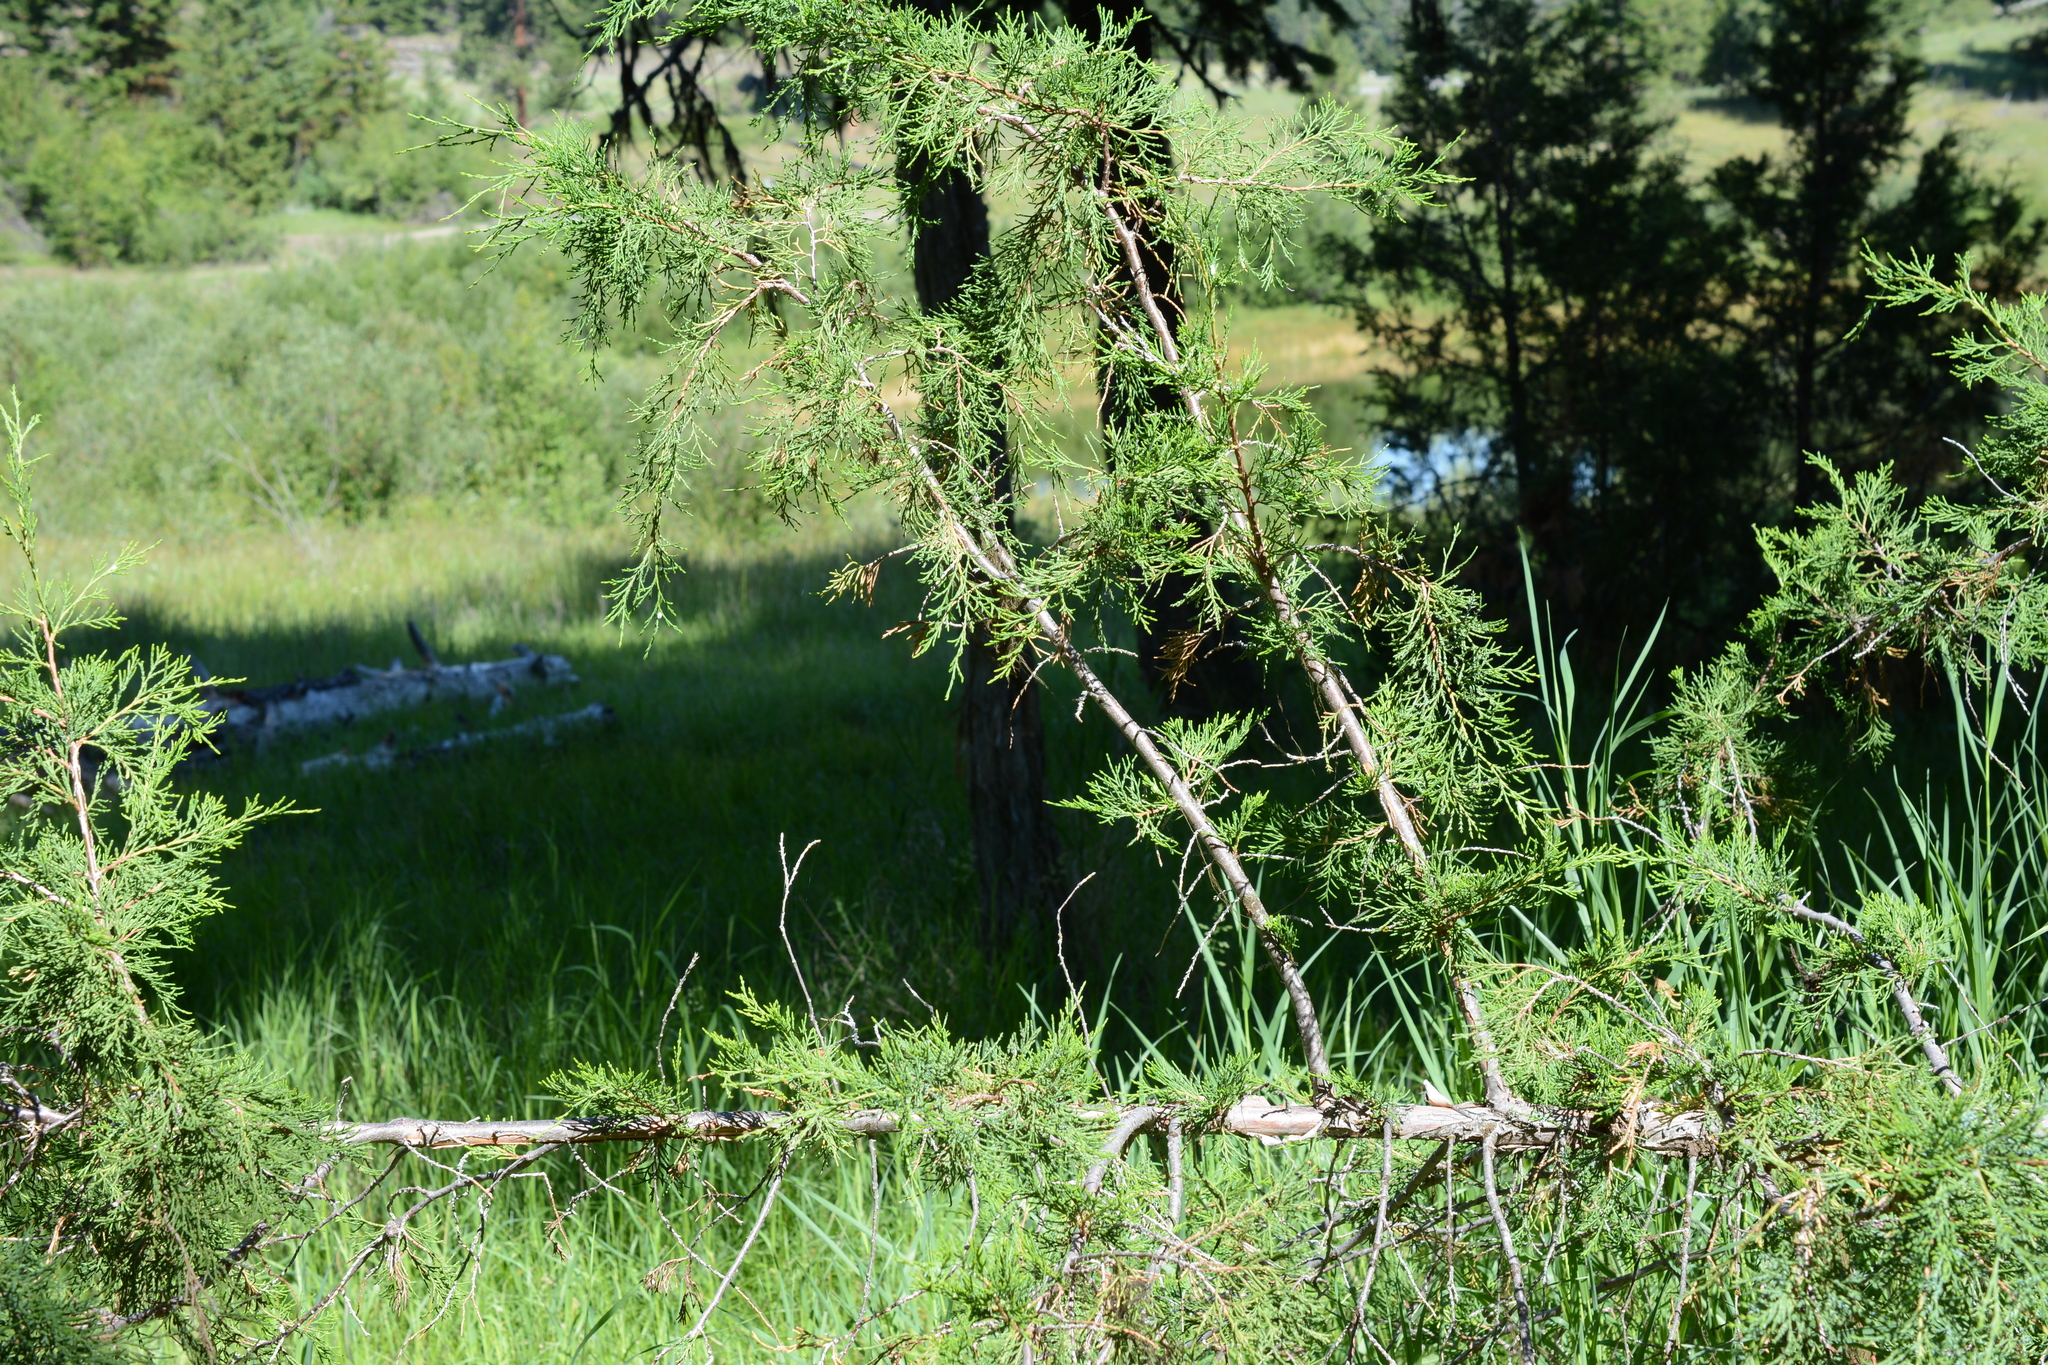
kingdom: Plantae
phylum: Tracheophyta
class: Pinopsida
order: Pinales
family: Cupressaceae
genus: Juniperus
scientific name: Juniperus scopulorum
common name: Rocky mountain juniper
